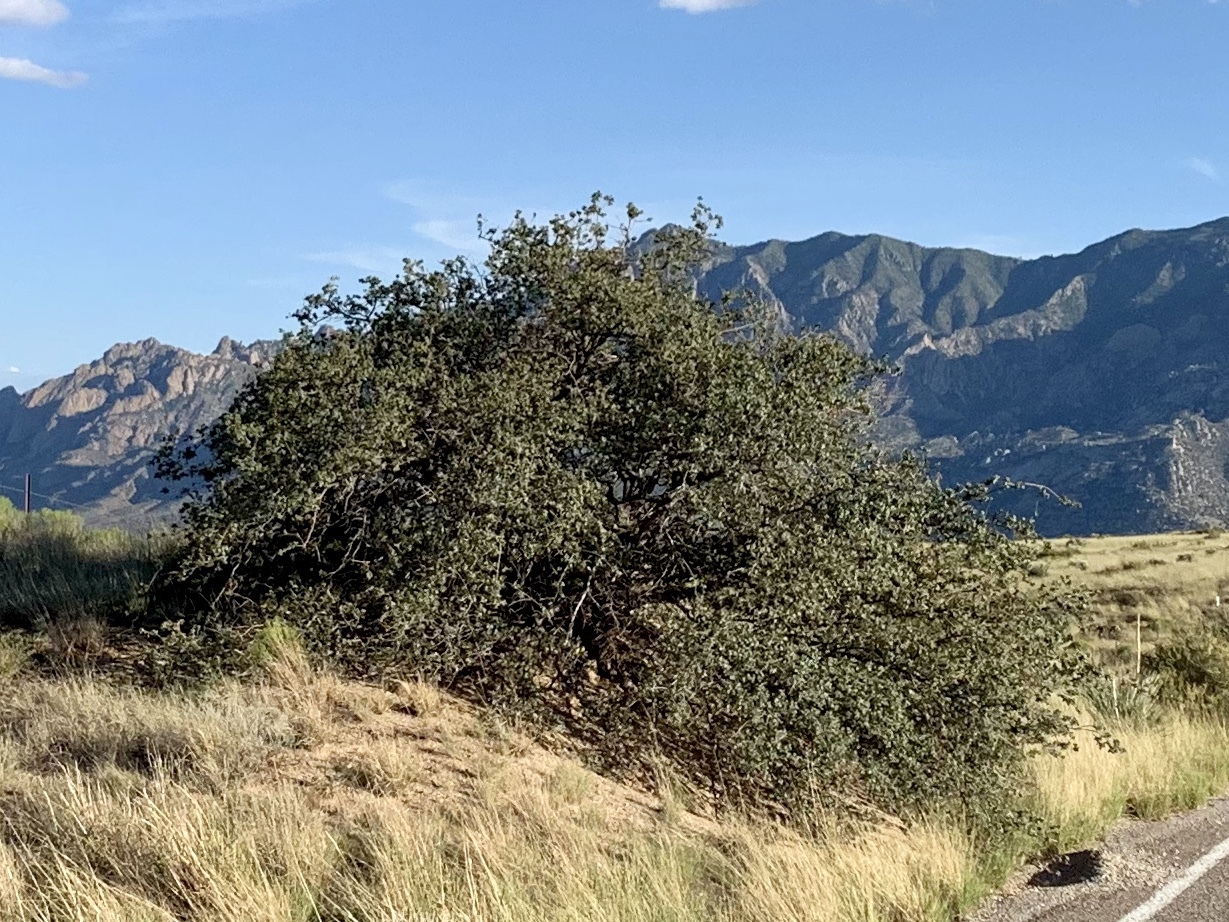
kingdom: Plantae
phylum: Tracheophyta
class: Magnoliopsida
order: Fagales
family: Fagaceae
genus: Quercus
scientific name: Quercus turbinella
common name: Sonoran scrub oak
